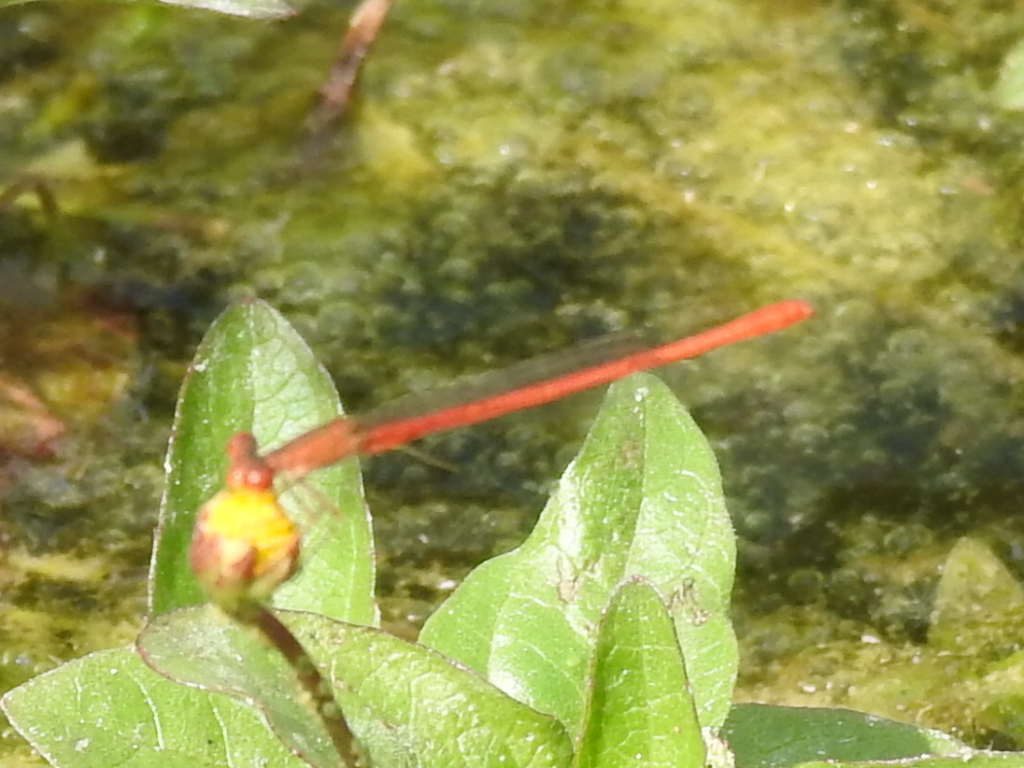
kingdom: Animalia
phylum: Arthropoda
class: Insecta
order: Odonata
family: Coenagrionidae
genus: Telebasis
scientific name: Telebasis salva
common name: Desert firetail
